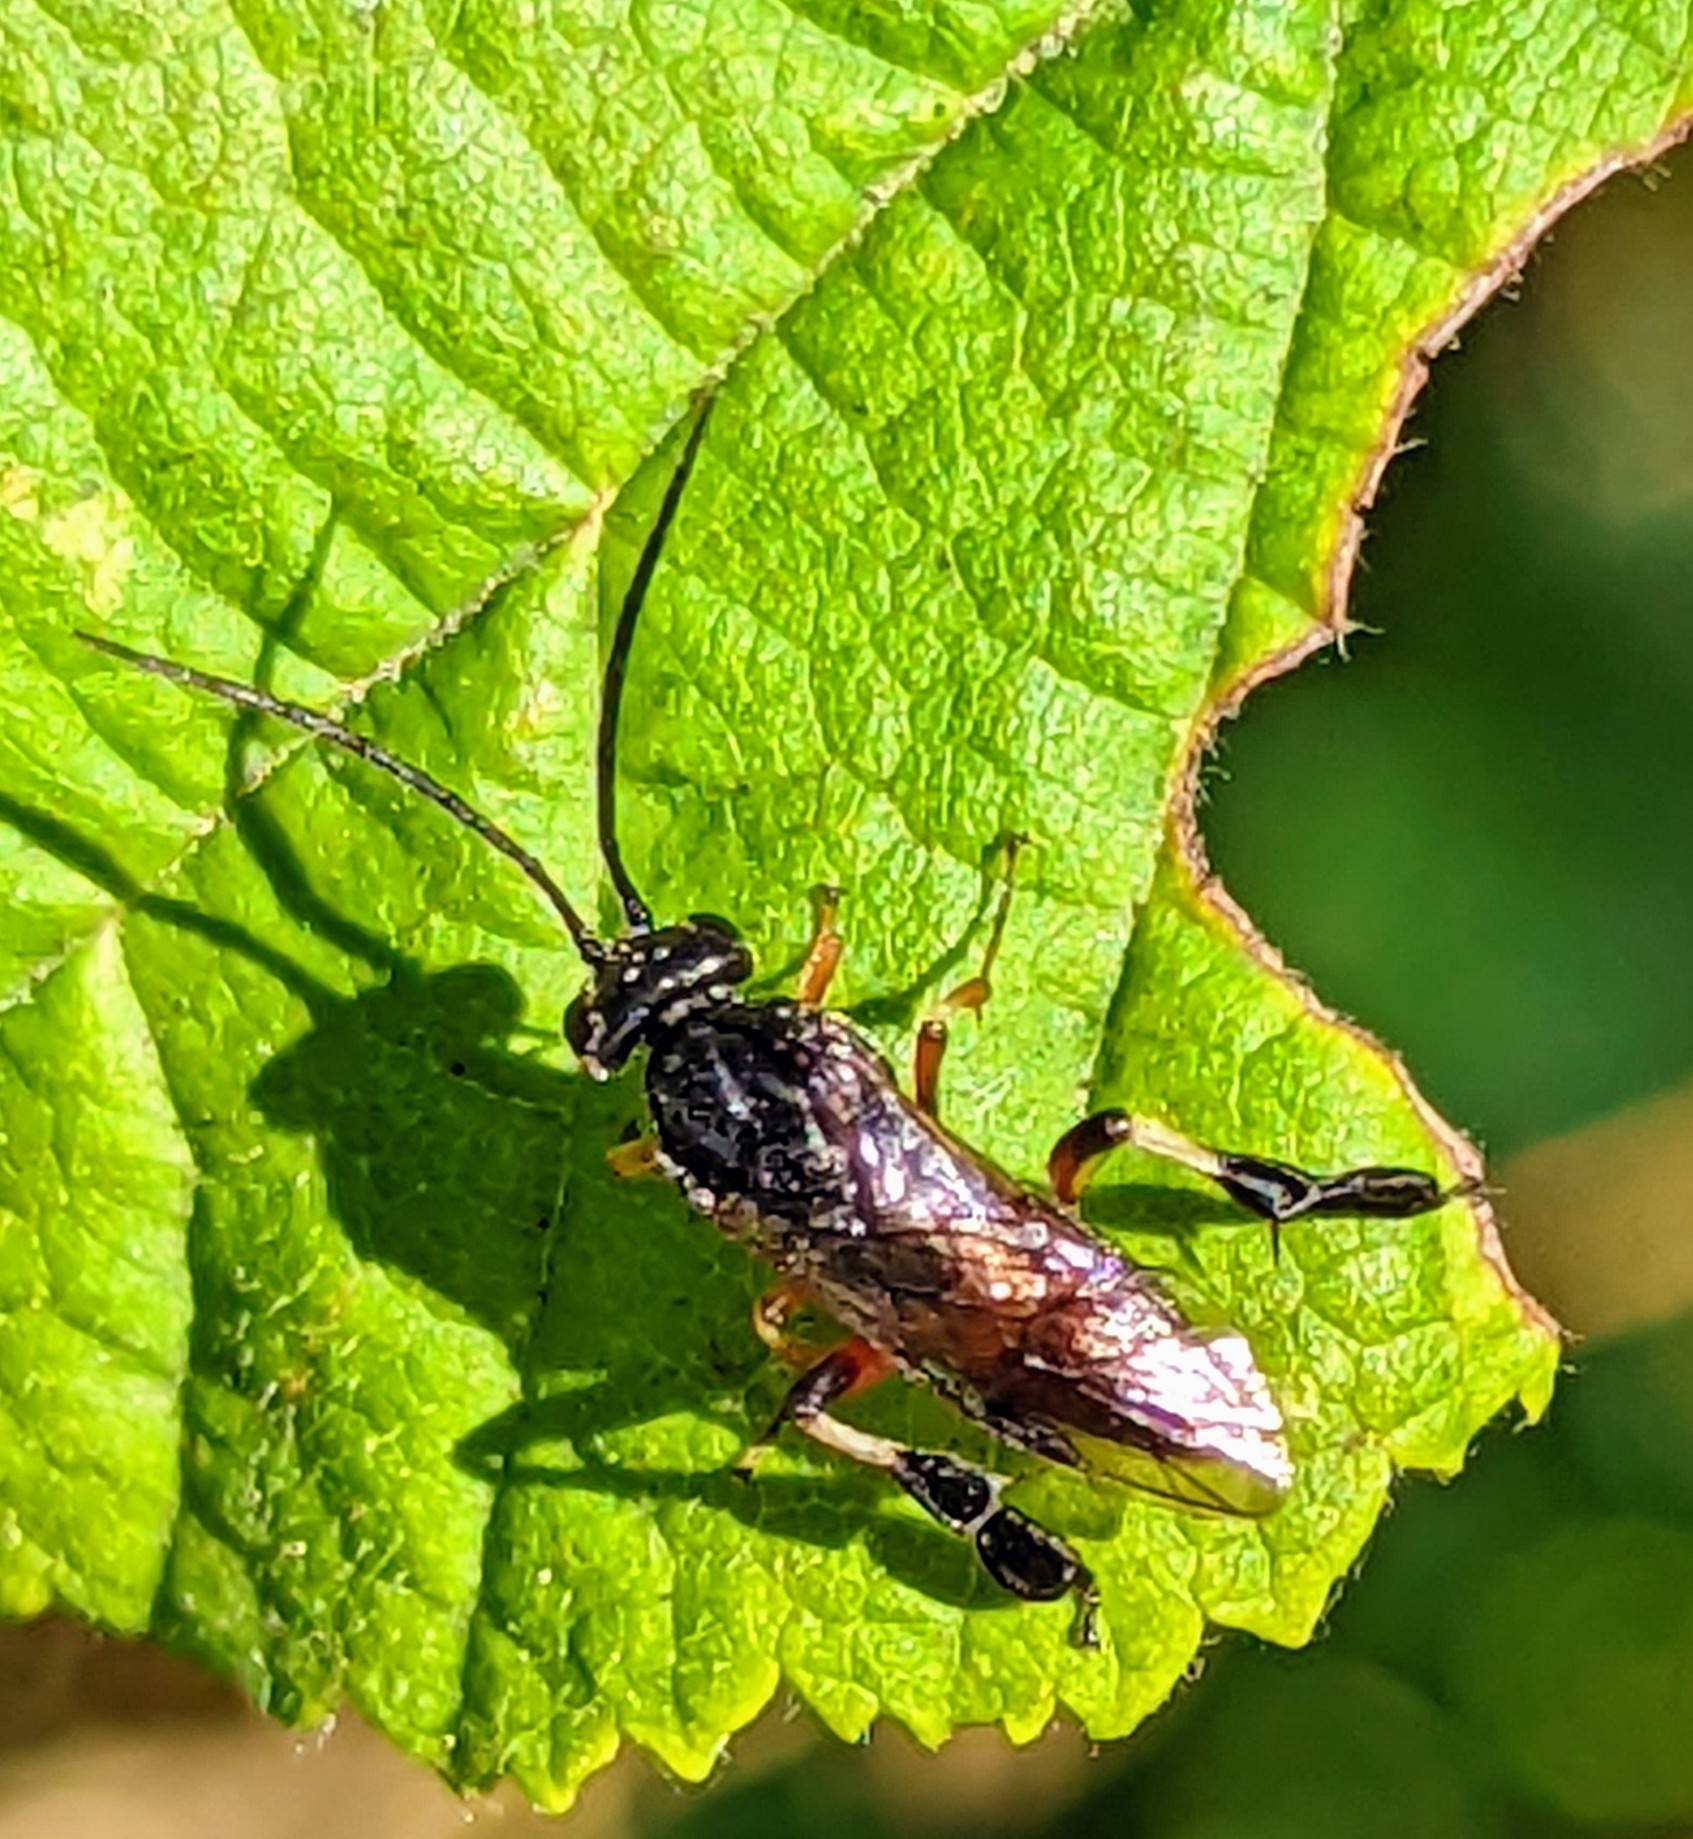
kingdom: Animalia
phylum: Arthropoda
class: Insecta
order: Hymenoptera
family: Tenthredinidae
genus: Craesus
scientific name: Craesus septentrionalis
